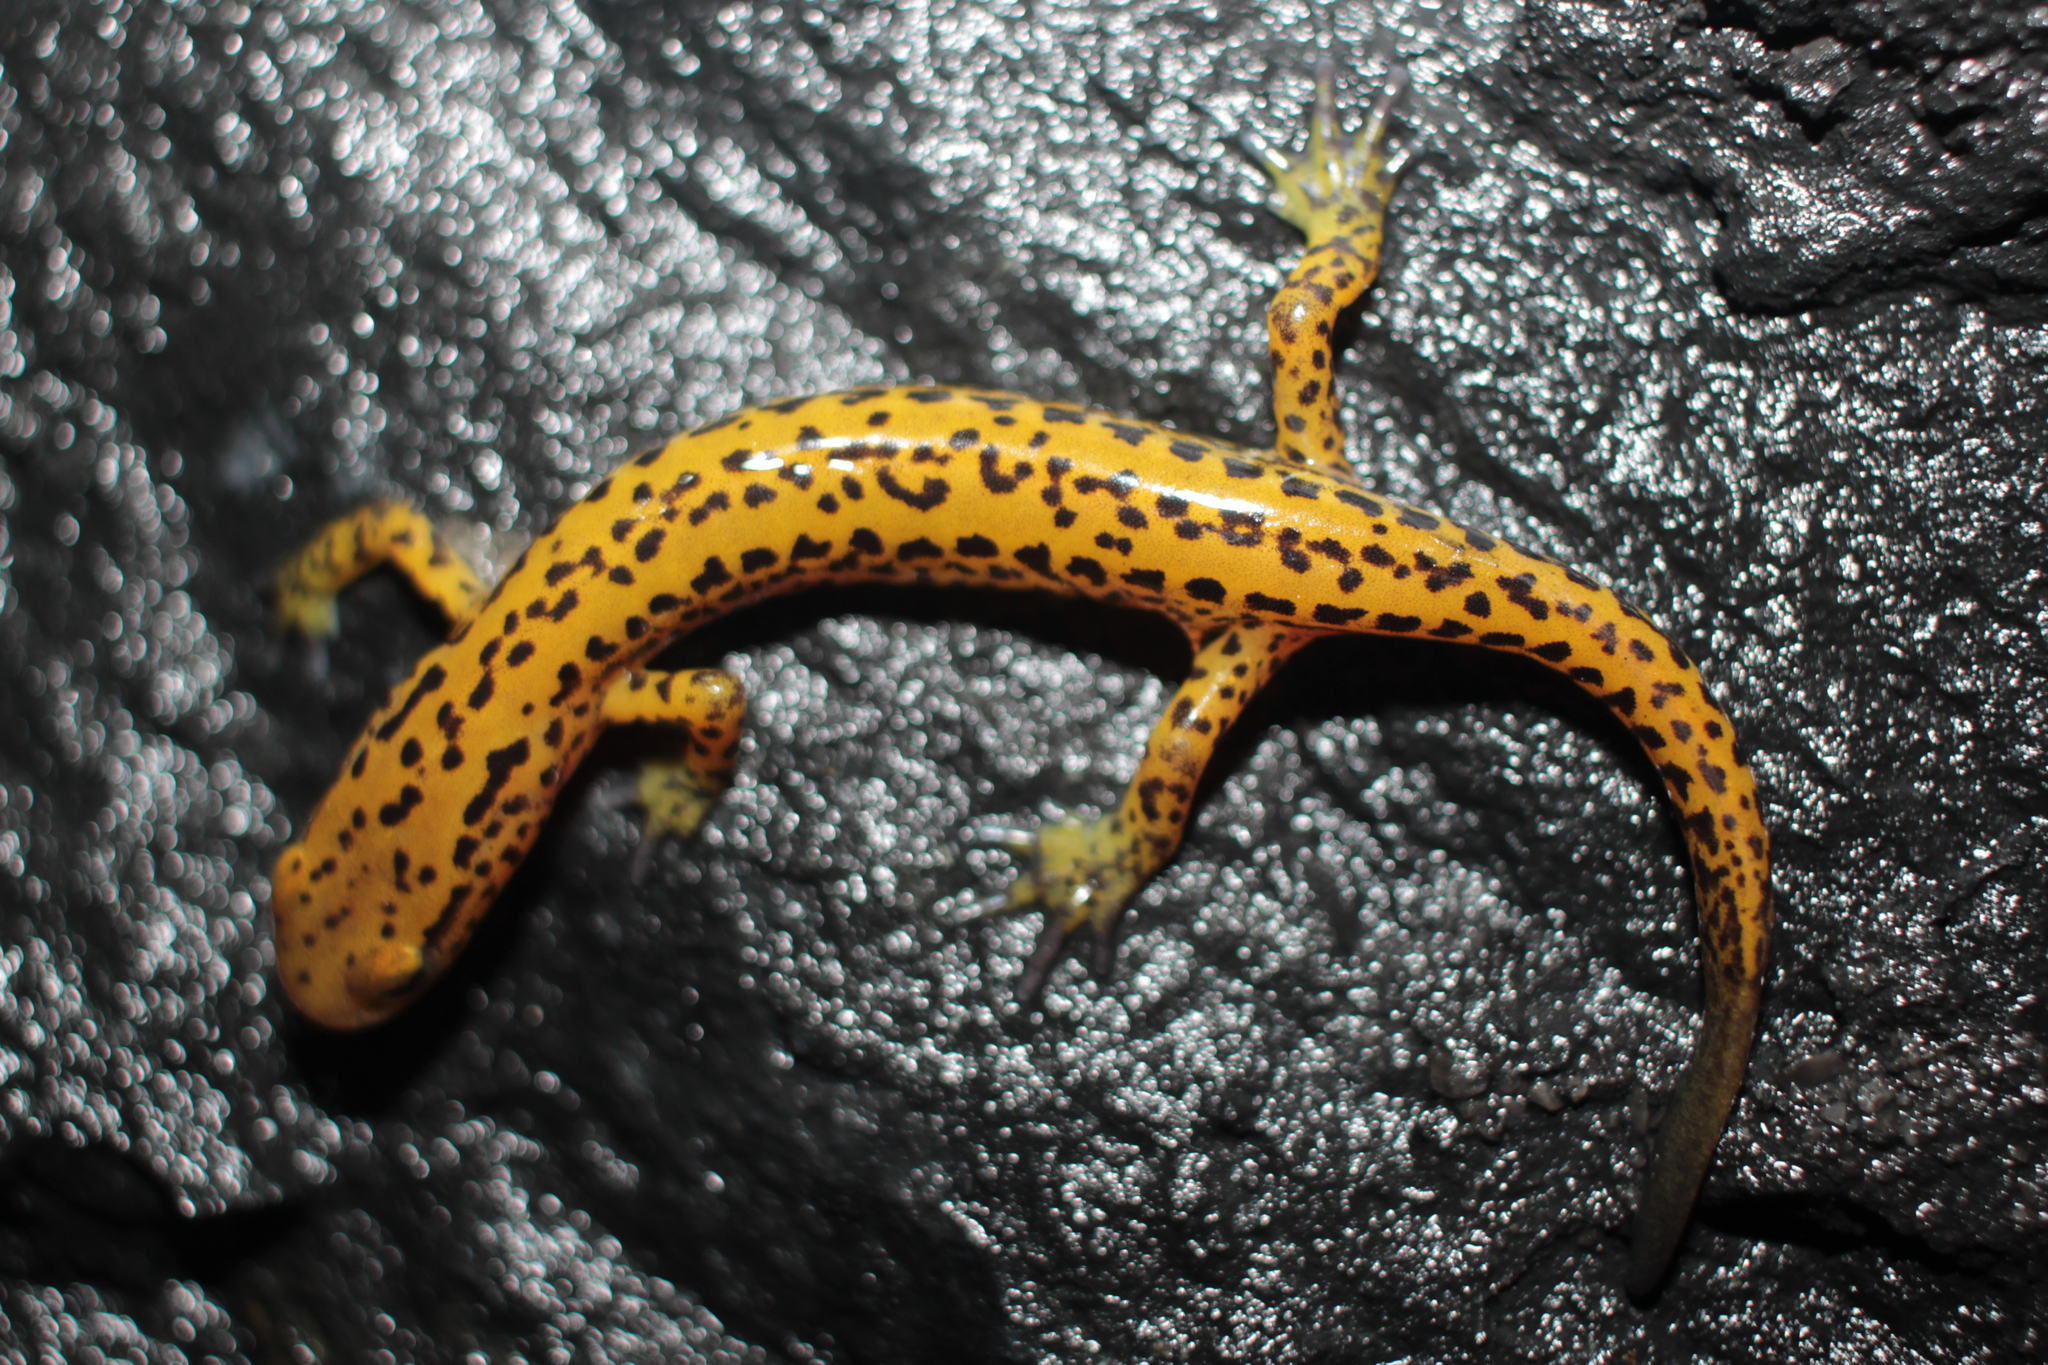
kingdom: Animalia
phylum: Chordata
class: Amphibia
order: Caudata
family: Plethodontidae
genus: Eurycea
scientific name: Eurycea longicauda
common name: Long-tailed salamander
